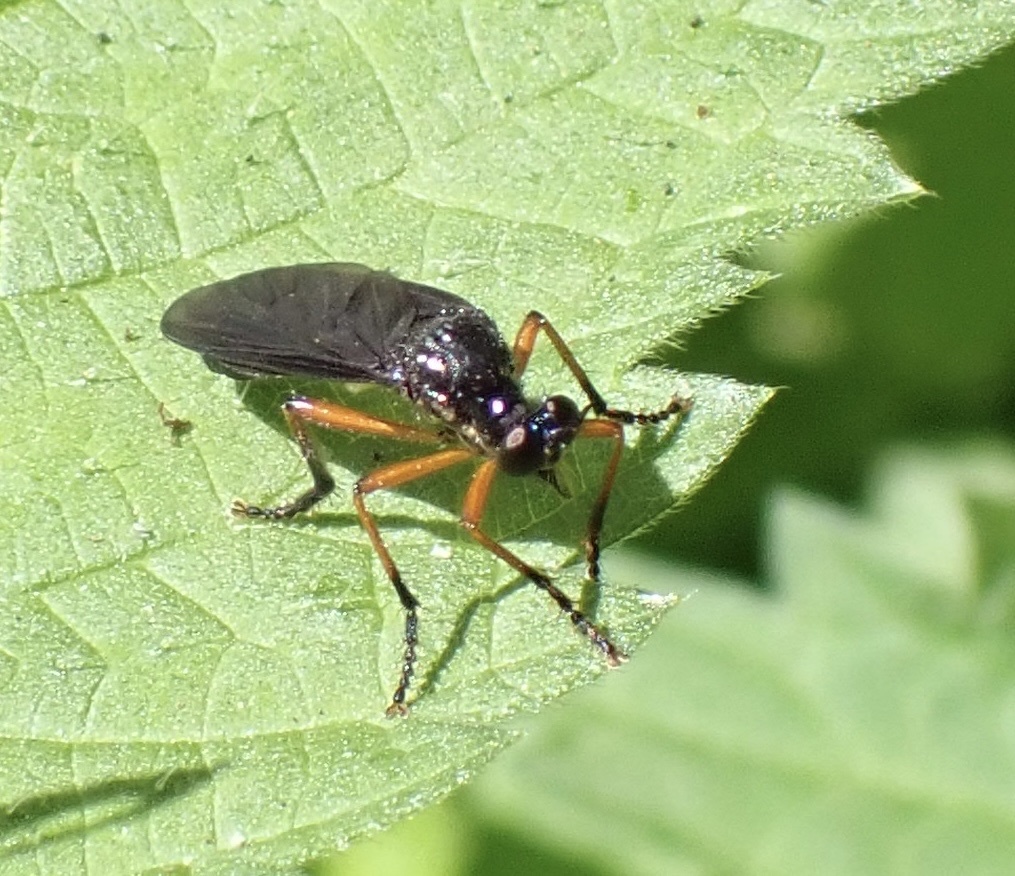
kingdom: Animalia
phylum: Arthropoda
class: Insecta
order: Diptera
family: Asilidae
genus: Dioctria
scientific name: Dioctria oelandica
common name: Orange-legged robberfly
